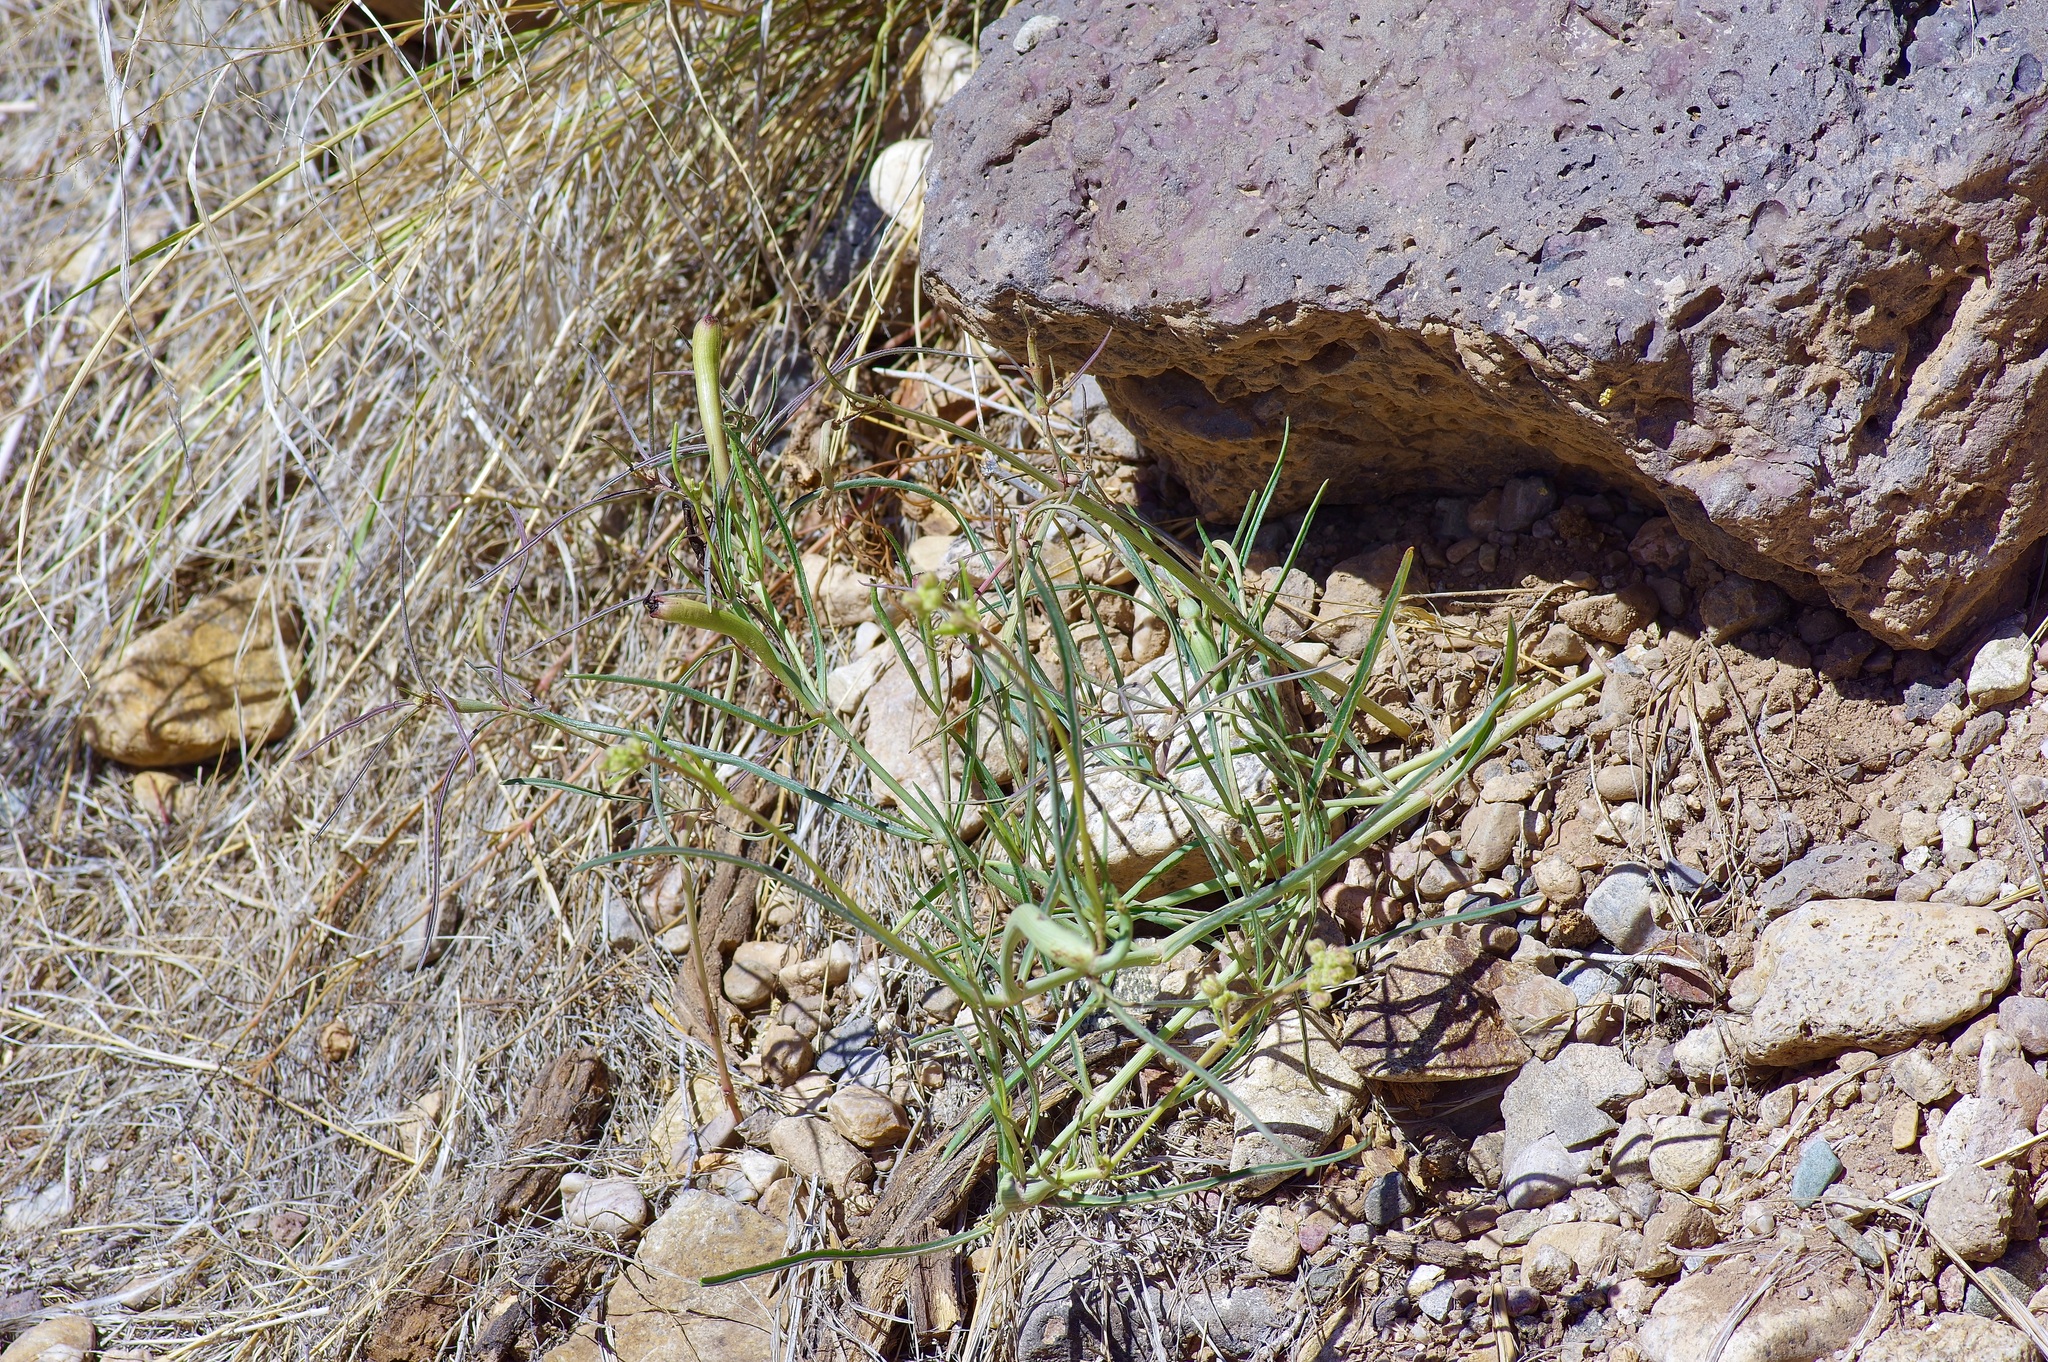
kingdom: Plantae
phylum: Tracheophyta
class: Magnoliopsida
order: Caryophyllales
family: Nyctaginaceae
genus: Mirabilis
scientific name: Mirabilis linearis
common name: Linear-leaved four-o'clock
